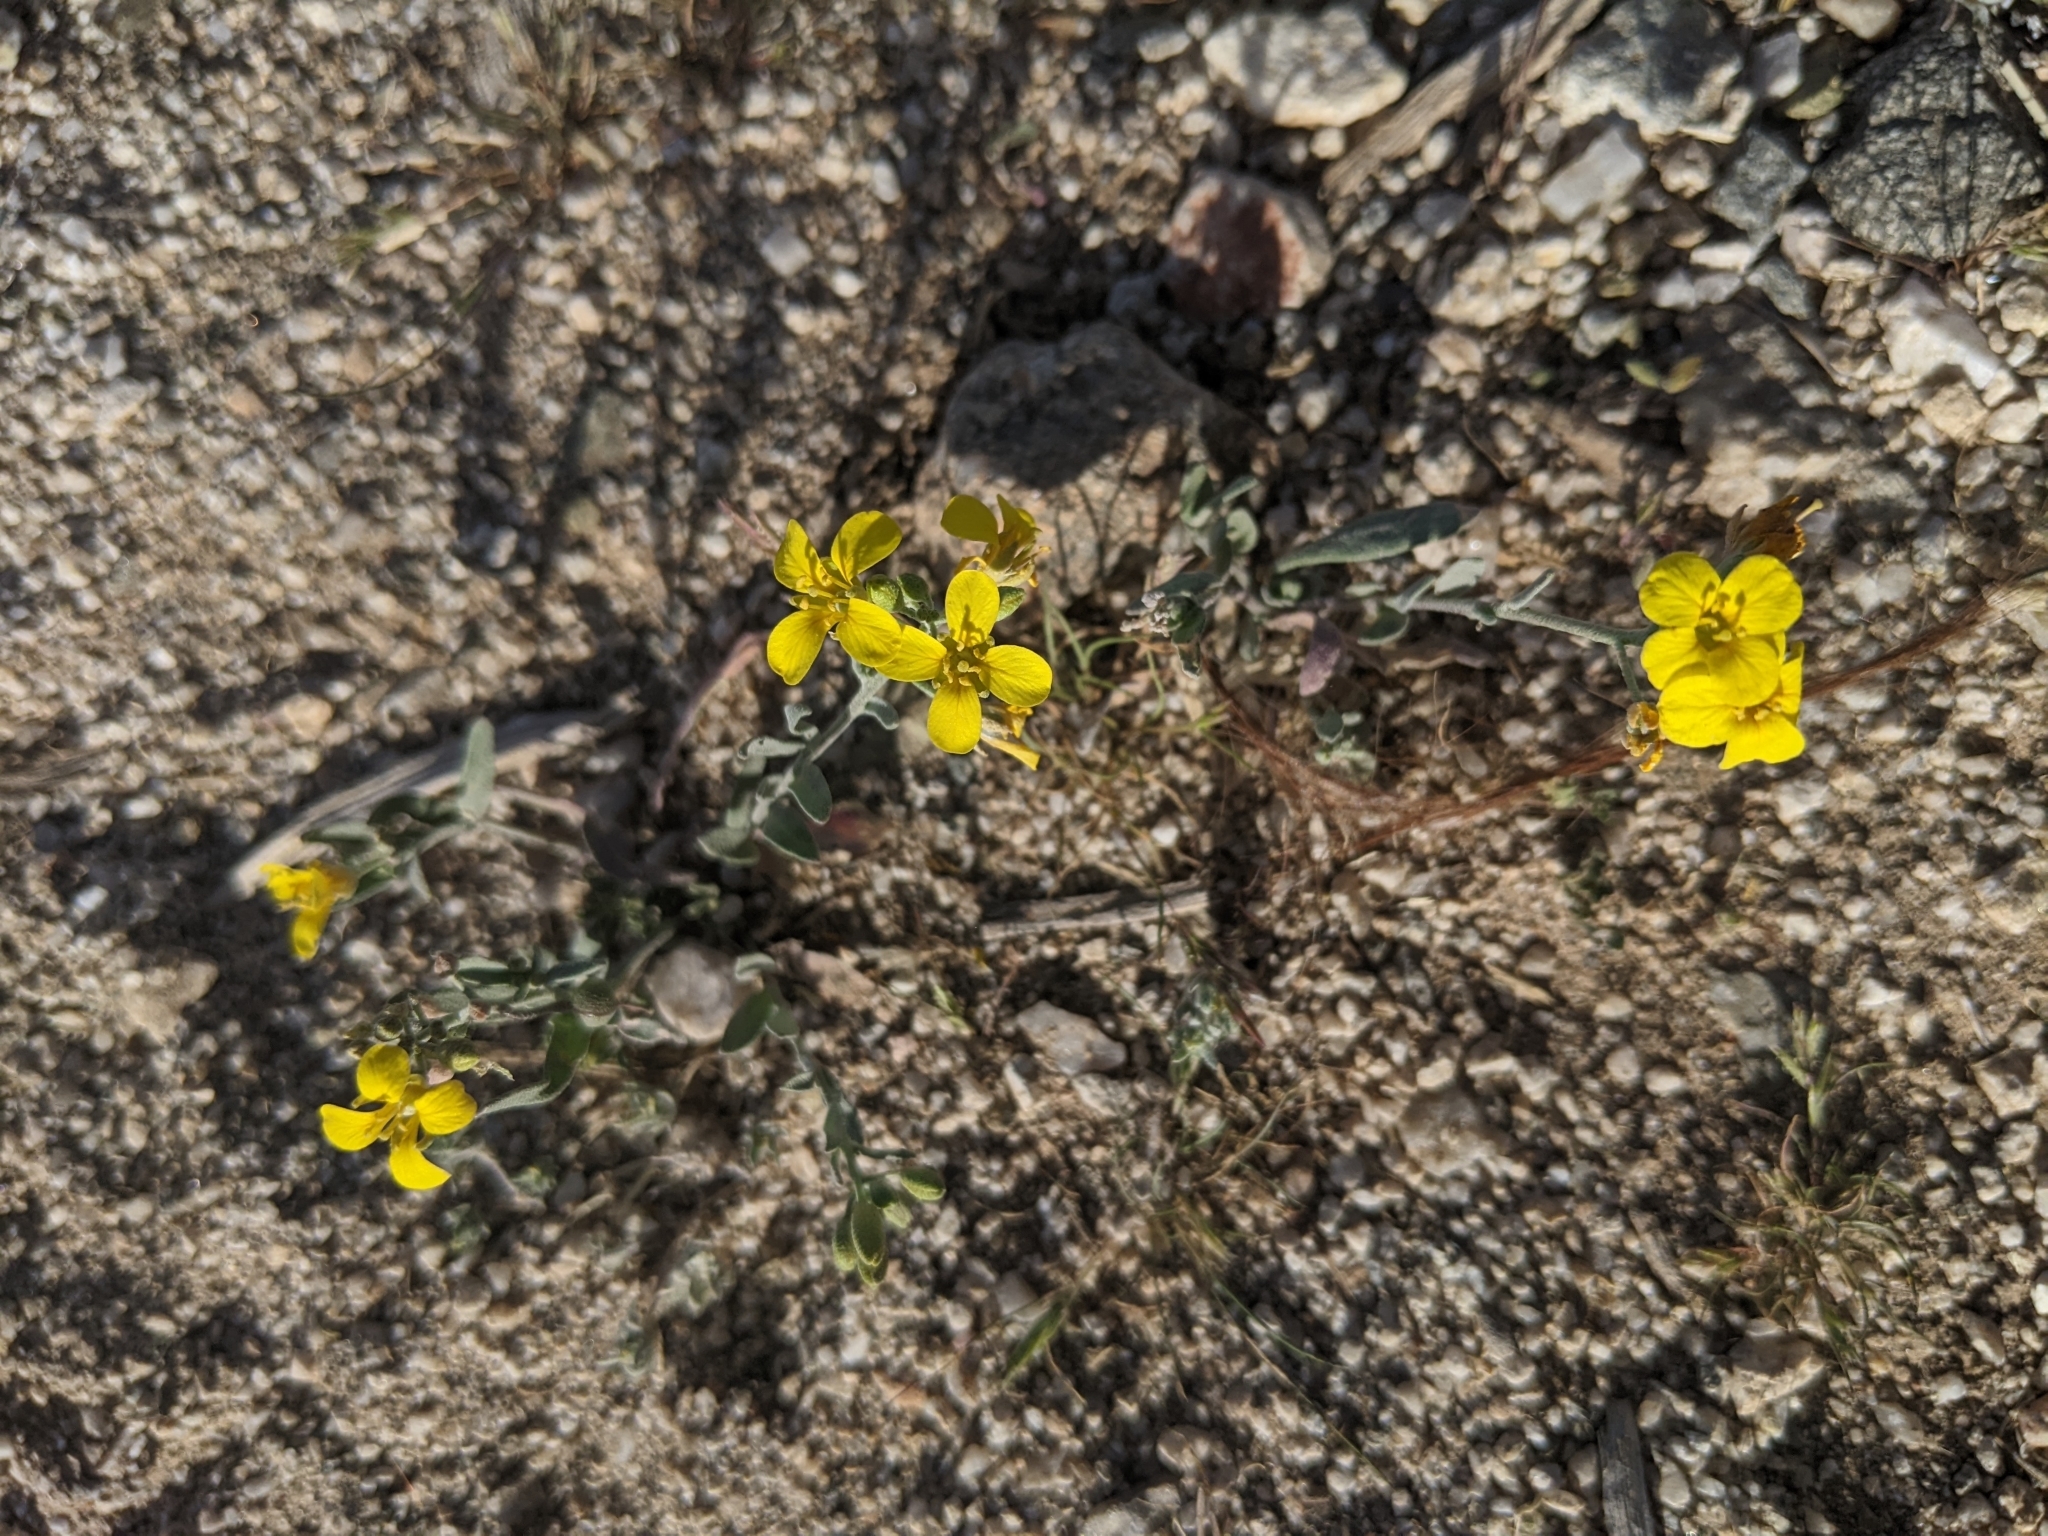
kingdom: Plantae
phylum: Tracheophyta
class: Magnoliopsida
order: Brassicales
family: Brassicaceae
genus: Physaria
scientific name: Physaria
